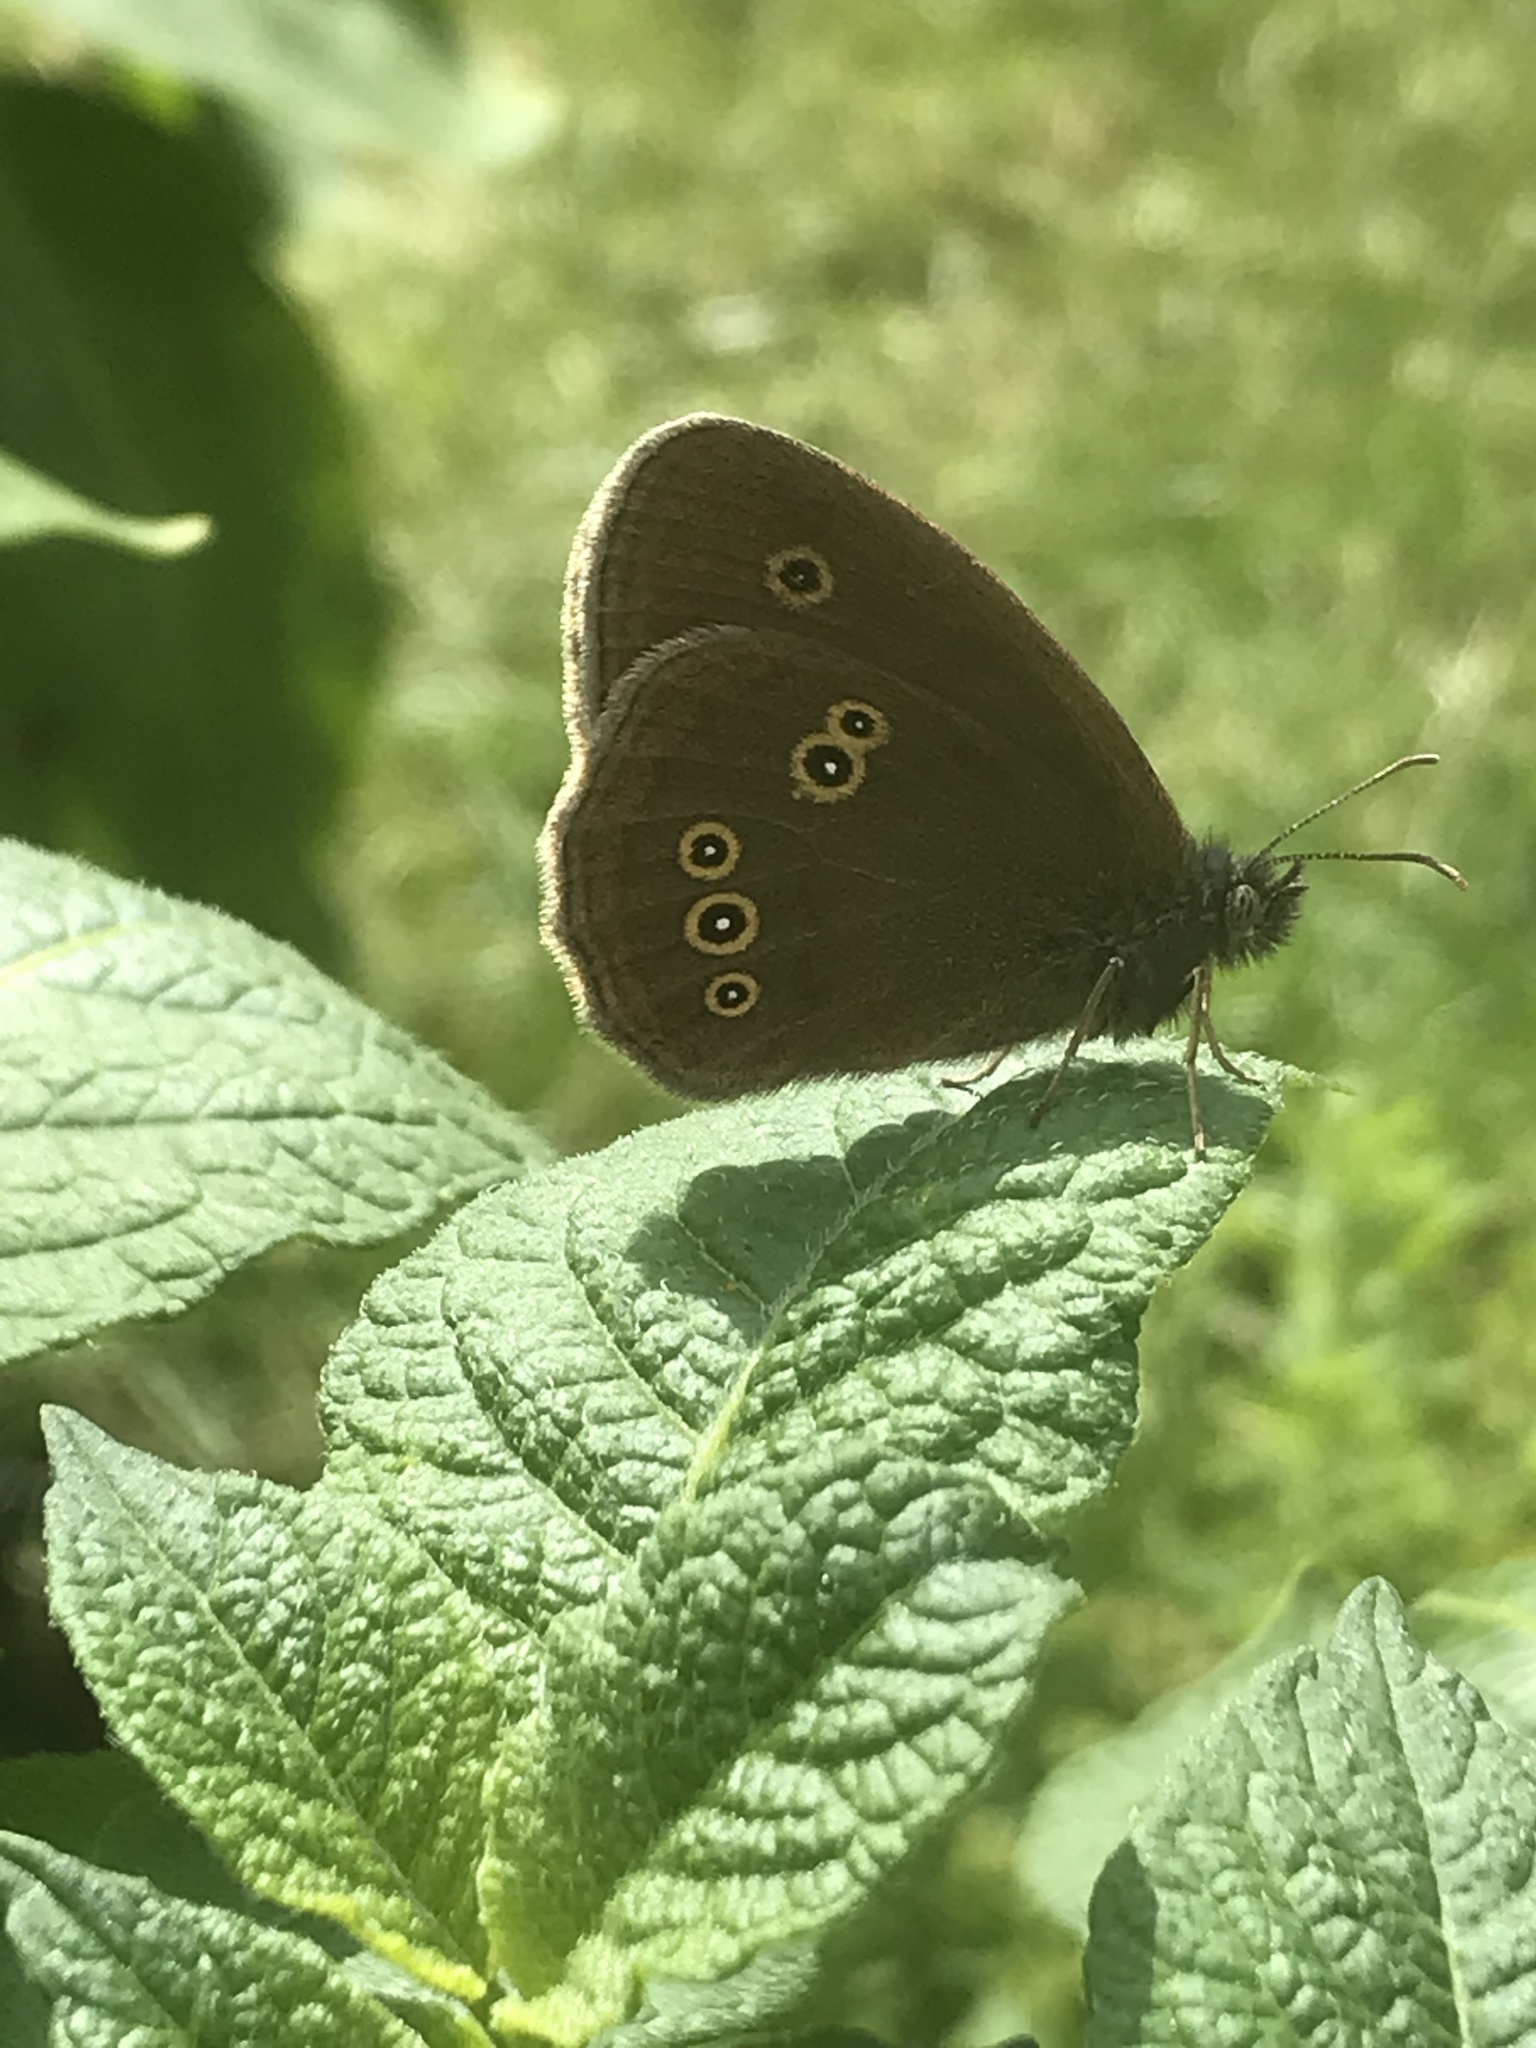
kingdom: Animalia
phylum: Arthropoda
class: Insecta
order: Lepidoptera
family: Nymphalidae
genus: Aphantopus
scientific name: Aphantopus hyperantus
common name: Ringlet
